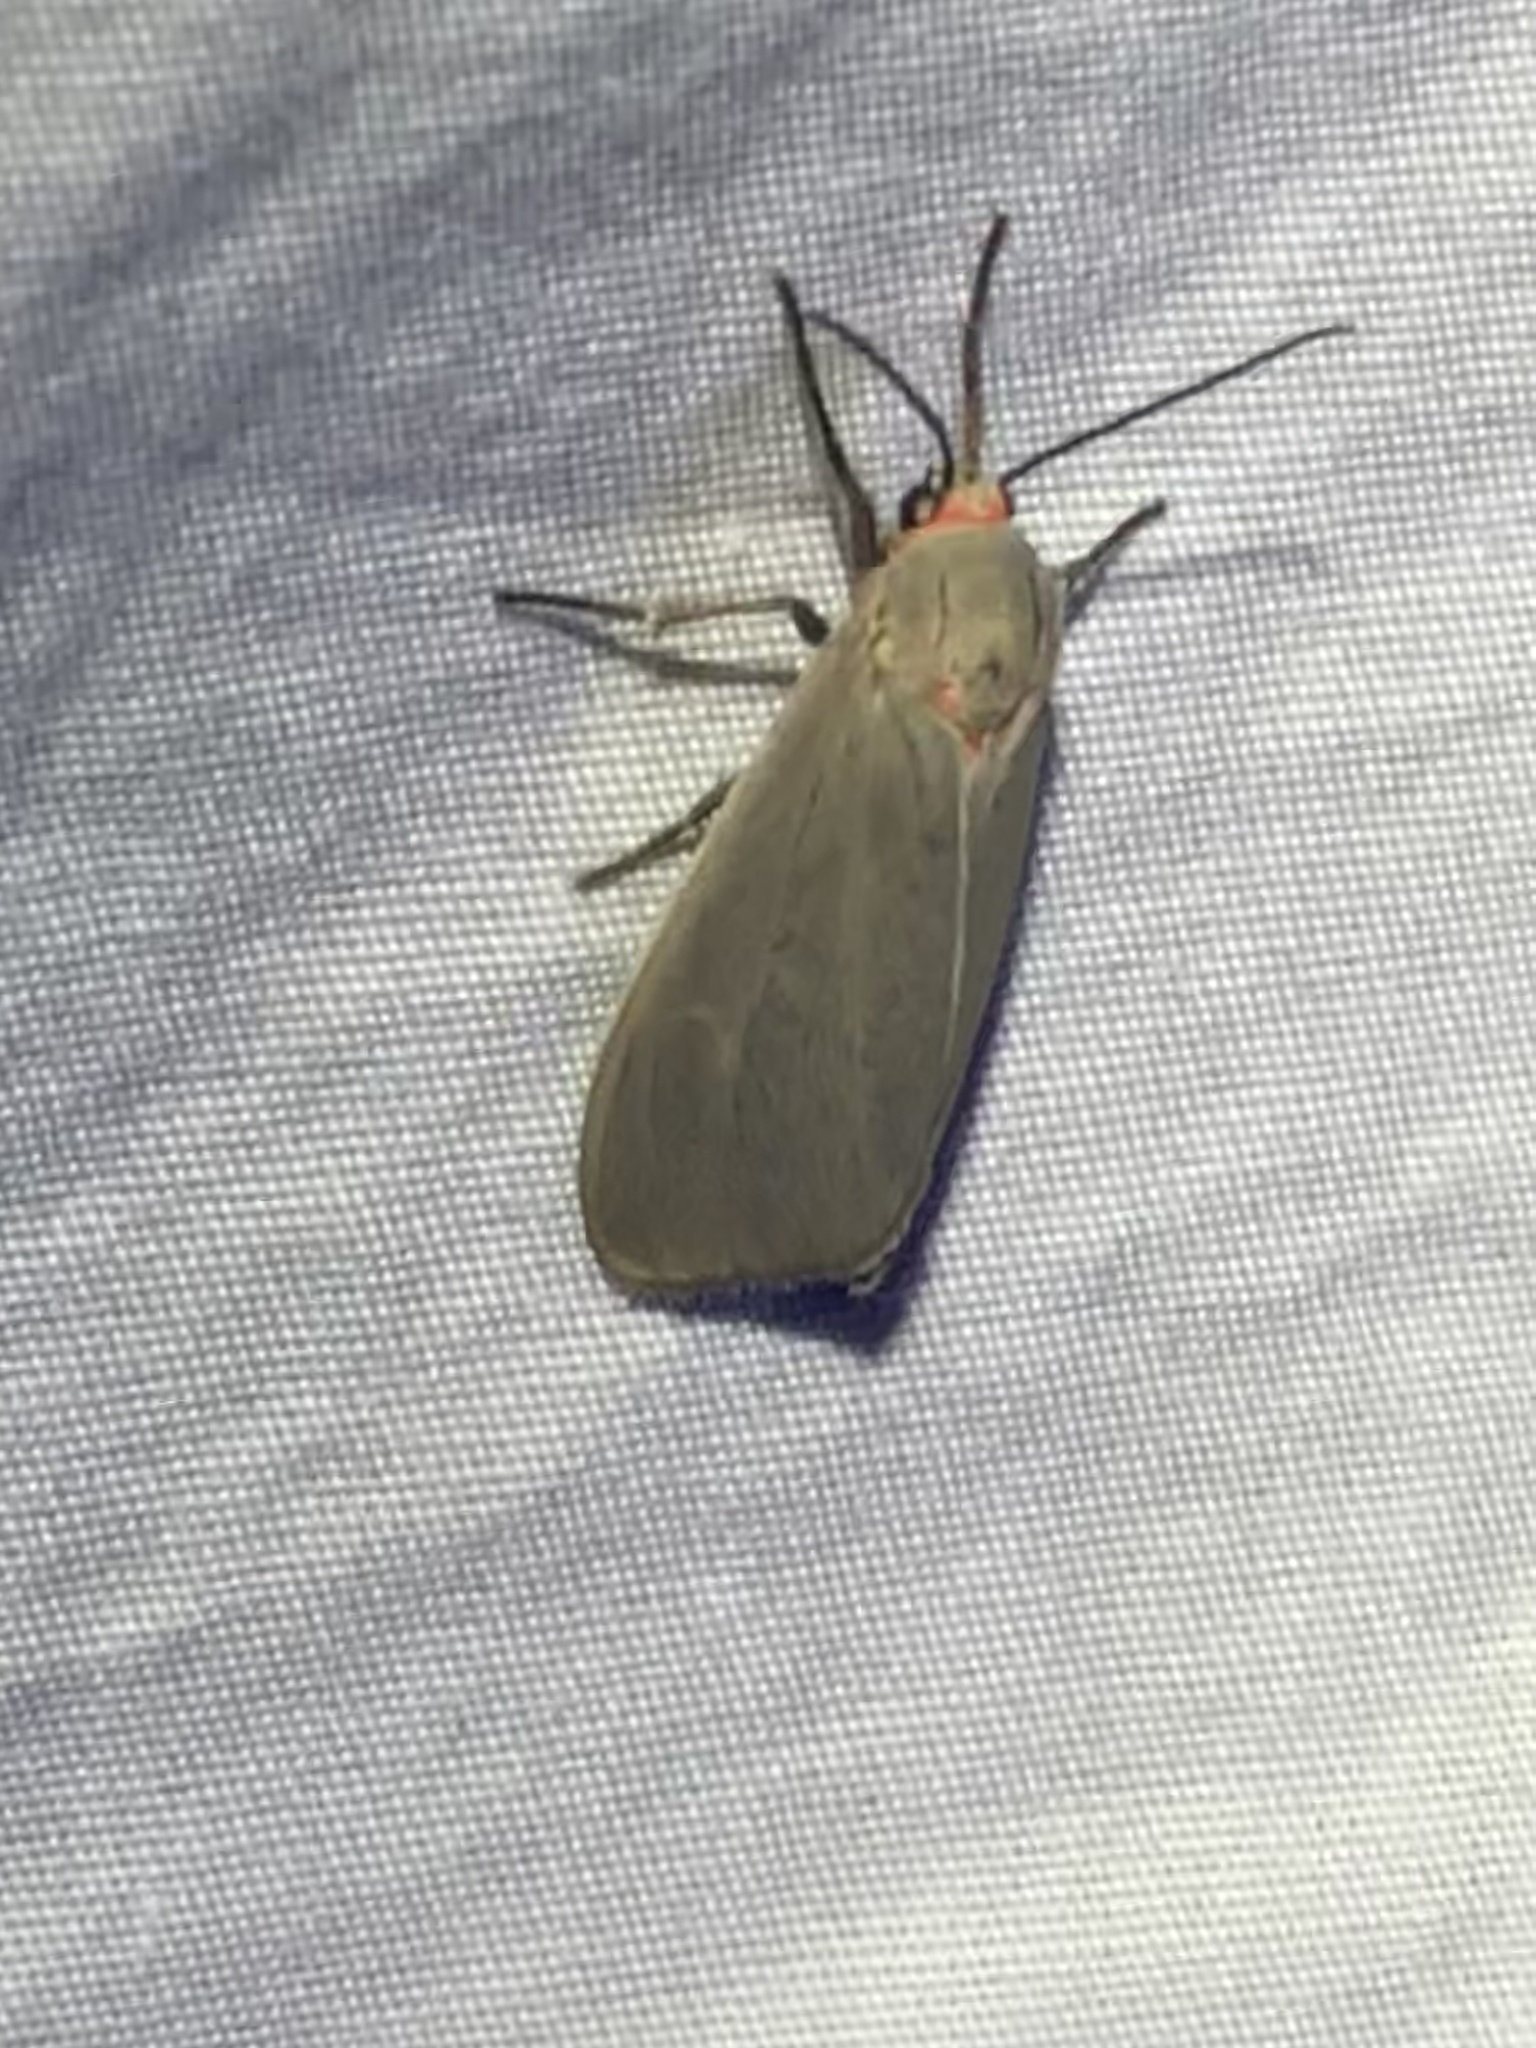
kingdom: Animalia
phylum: Arthropoda
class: Insecta
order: Lepidoptera
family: Erebidae
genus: Pygarctia
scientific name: Pygarctia murina
